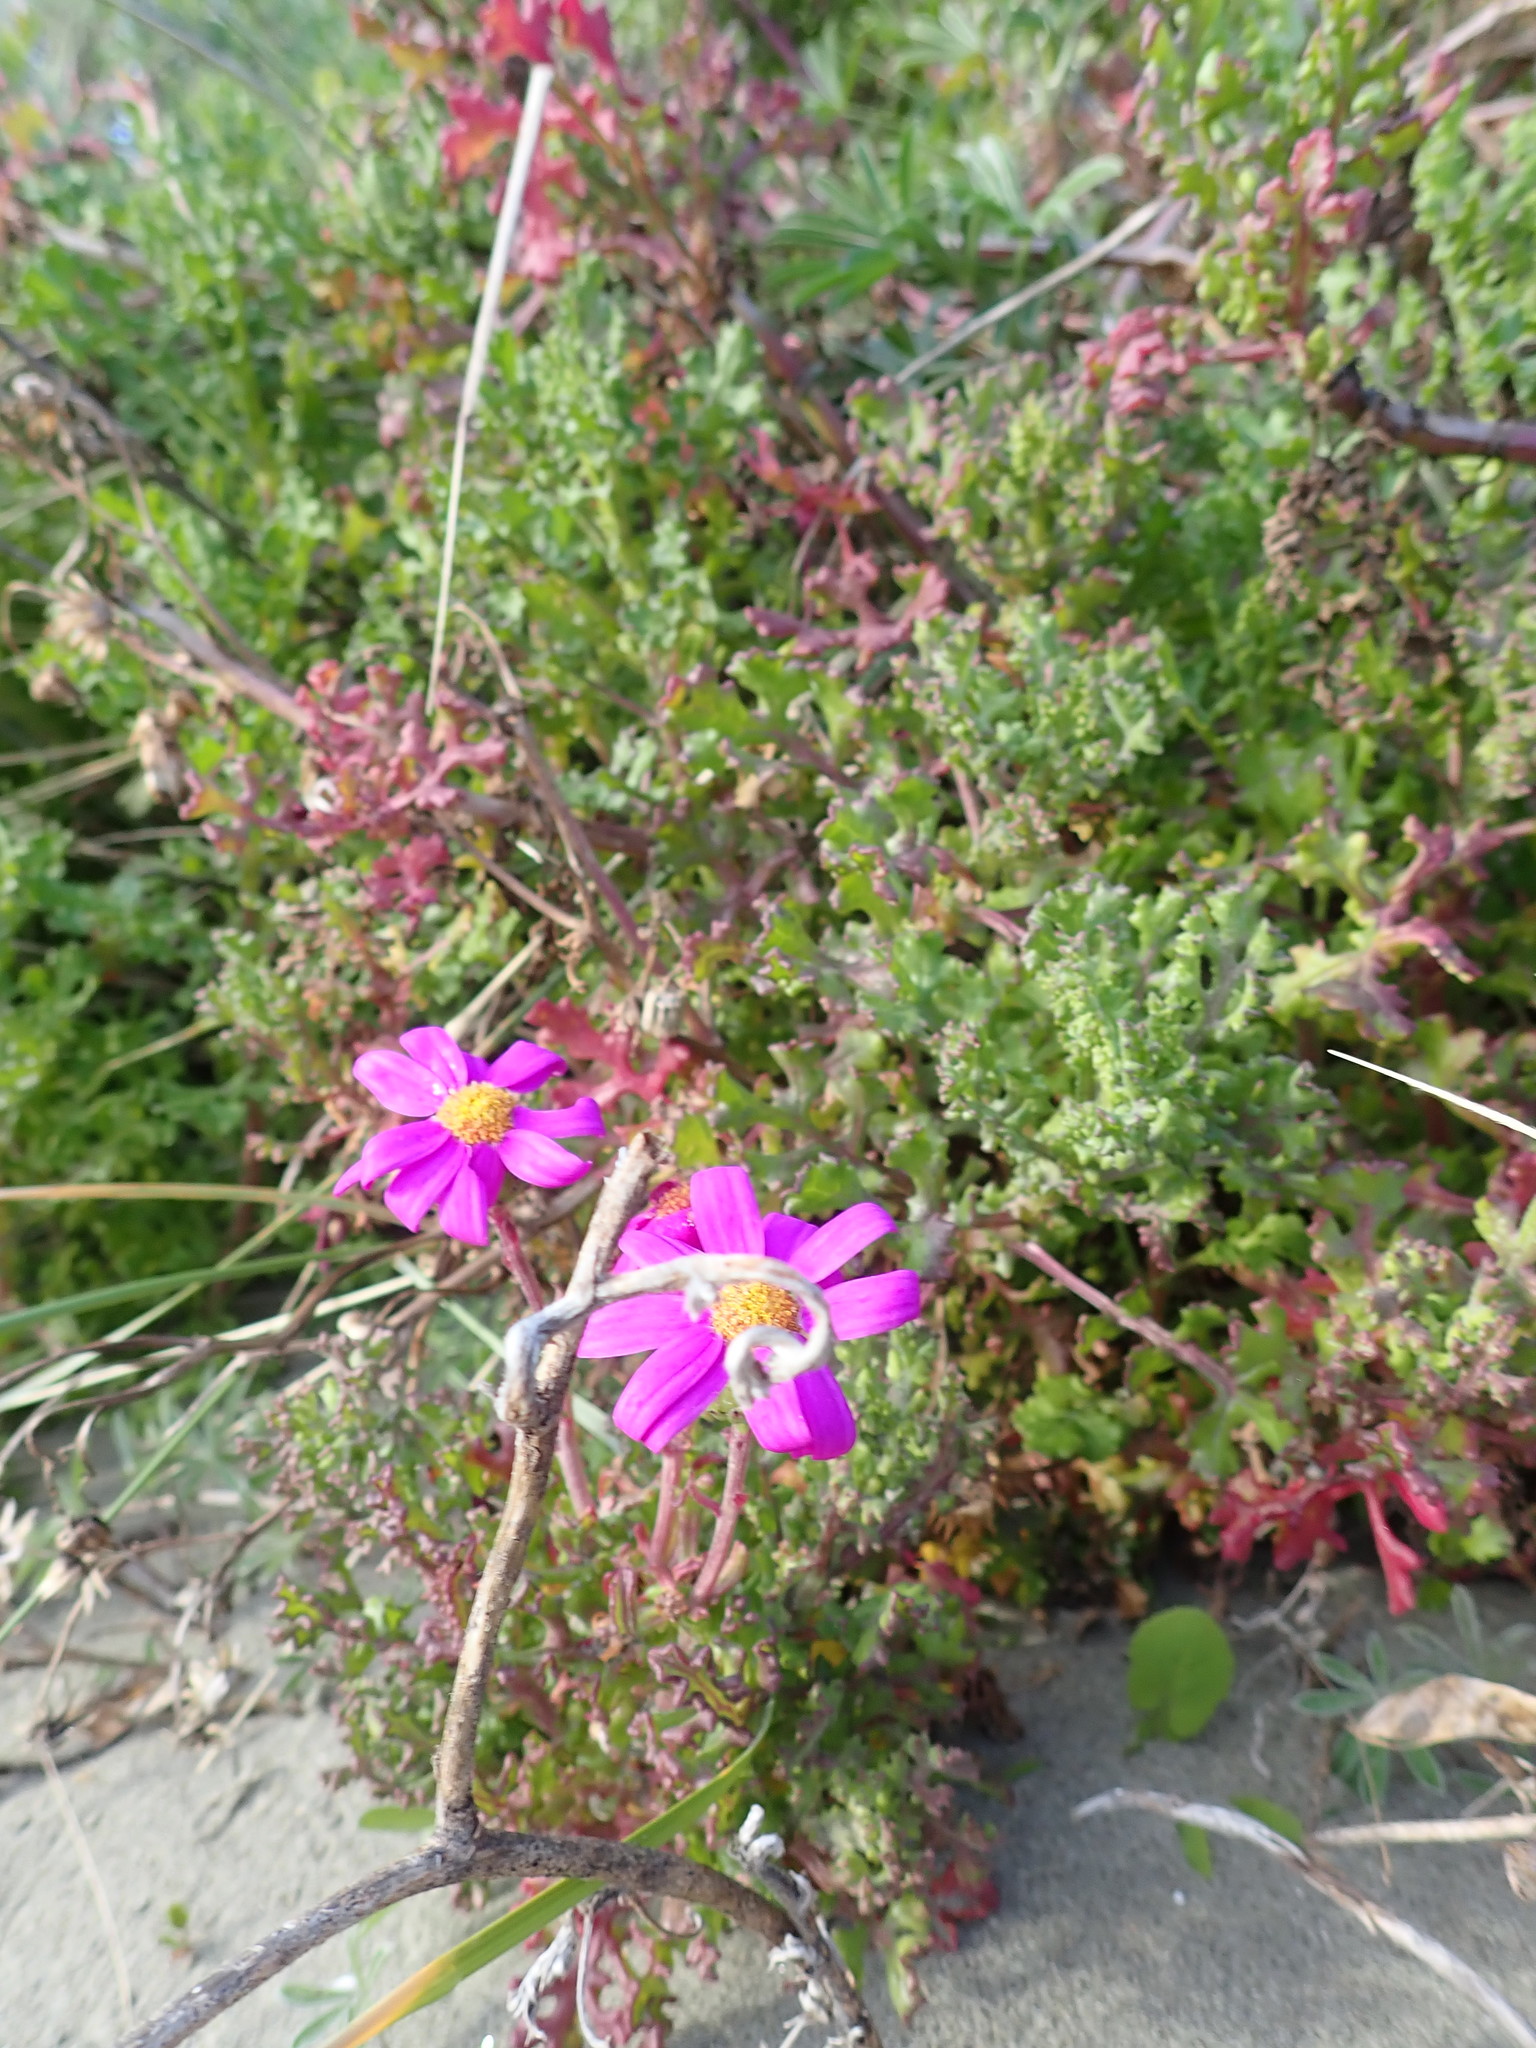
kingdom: Plantae
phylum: Tracheophyta
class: Magnoliopsida
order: Asterales
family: Asteraceae
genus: Senecio
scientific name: Senecio elegans
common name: Purple groundsel
